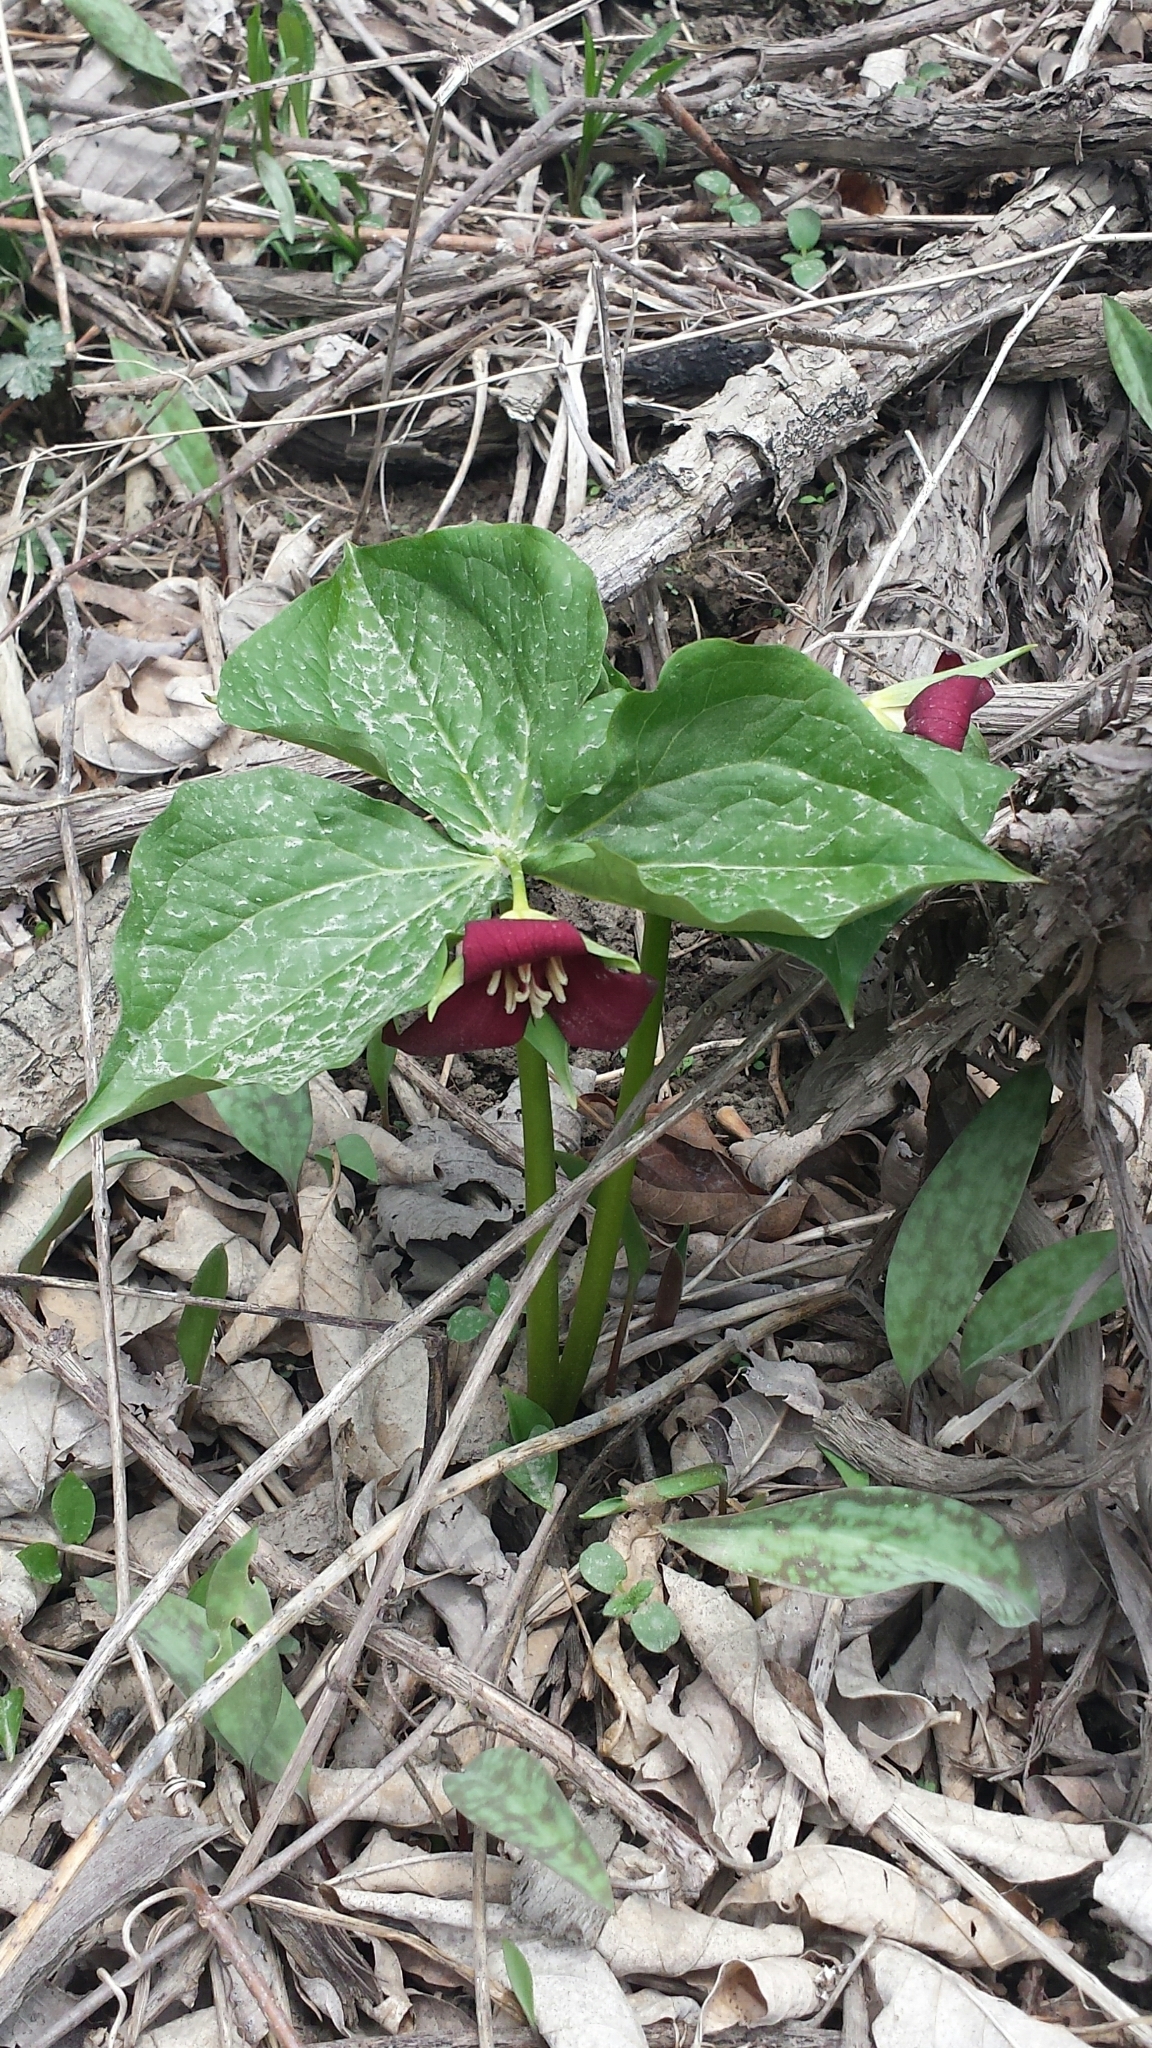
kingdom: Plantae
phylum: Tracheophyta
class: Liliopsida
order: Liliales
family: Melanthiaceae
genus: Trillium
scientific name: Trillium erectum
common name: Purple trillium
